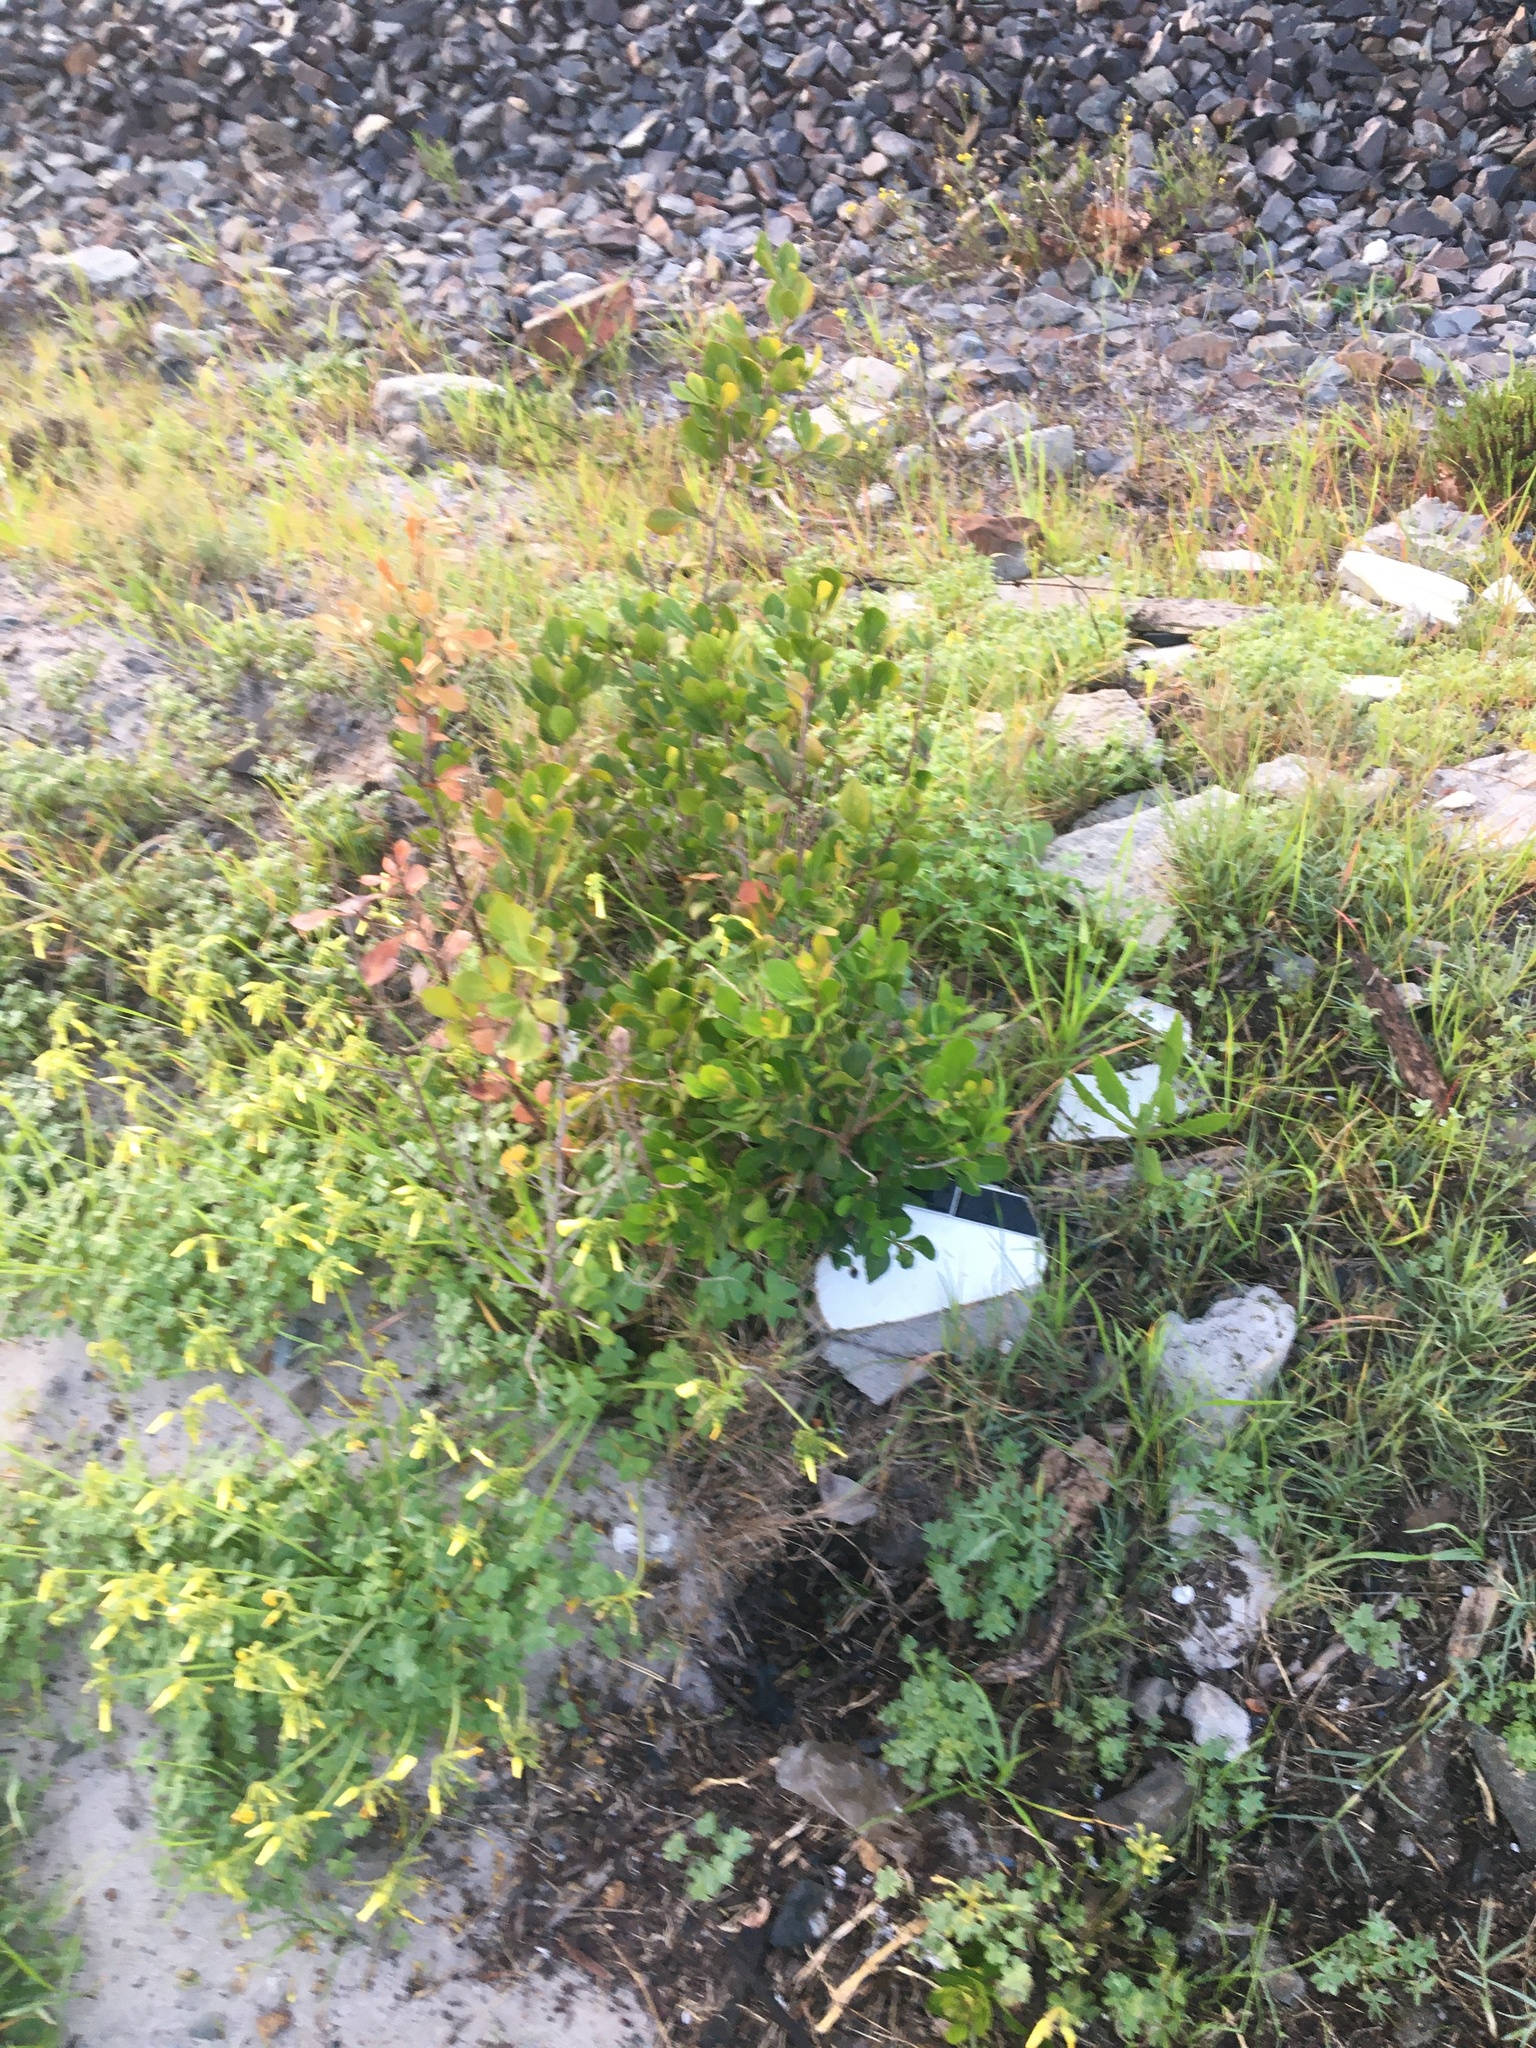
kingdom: Plantae
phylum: Tracheophyta
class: Magnoliopsida
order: Sapindales
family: Anacardiaceae
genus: Searsia
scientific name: Searsia lucida
